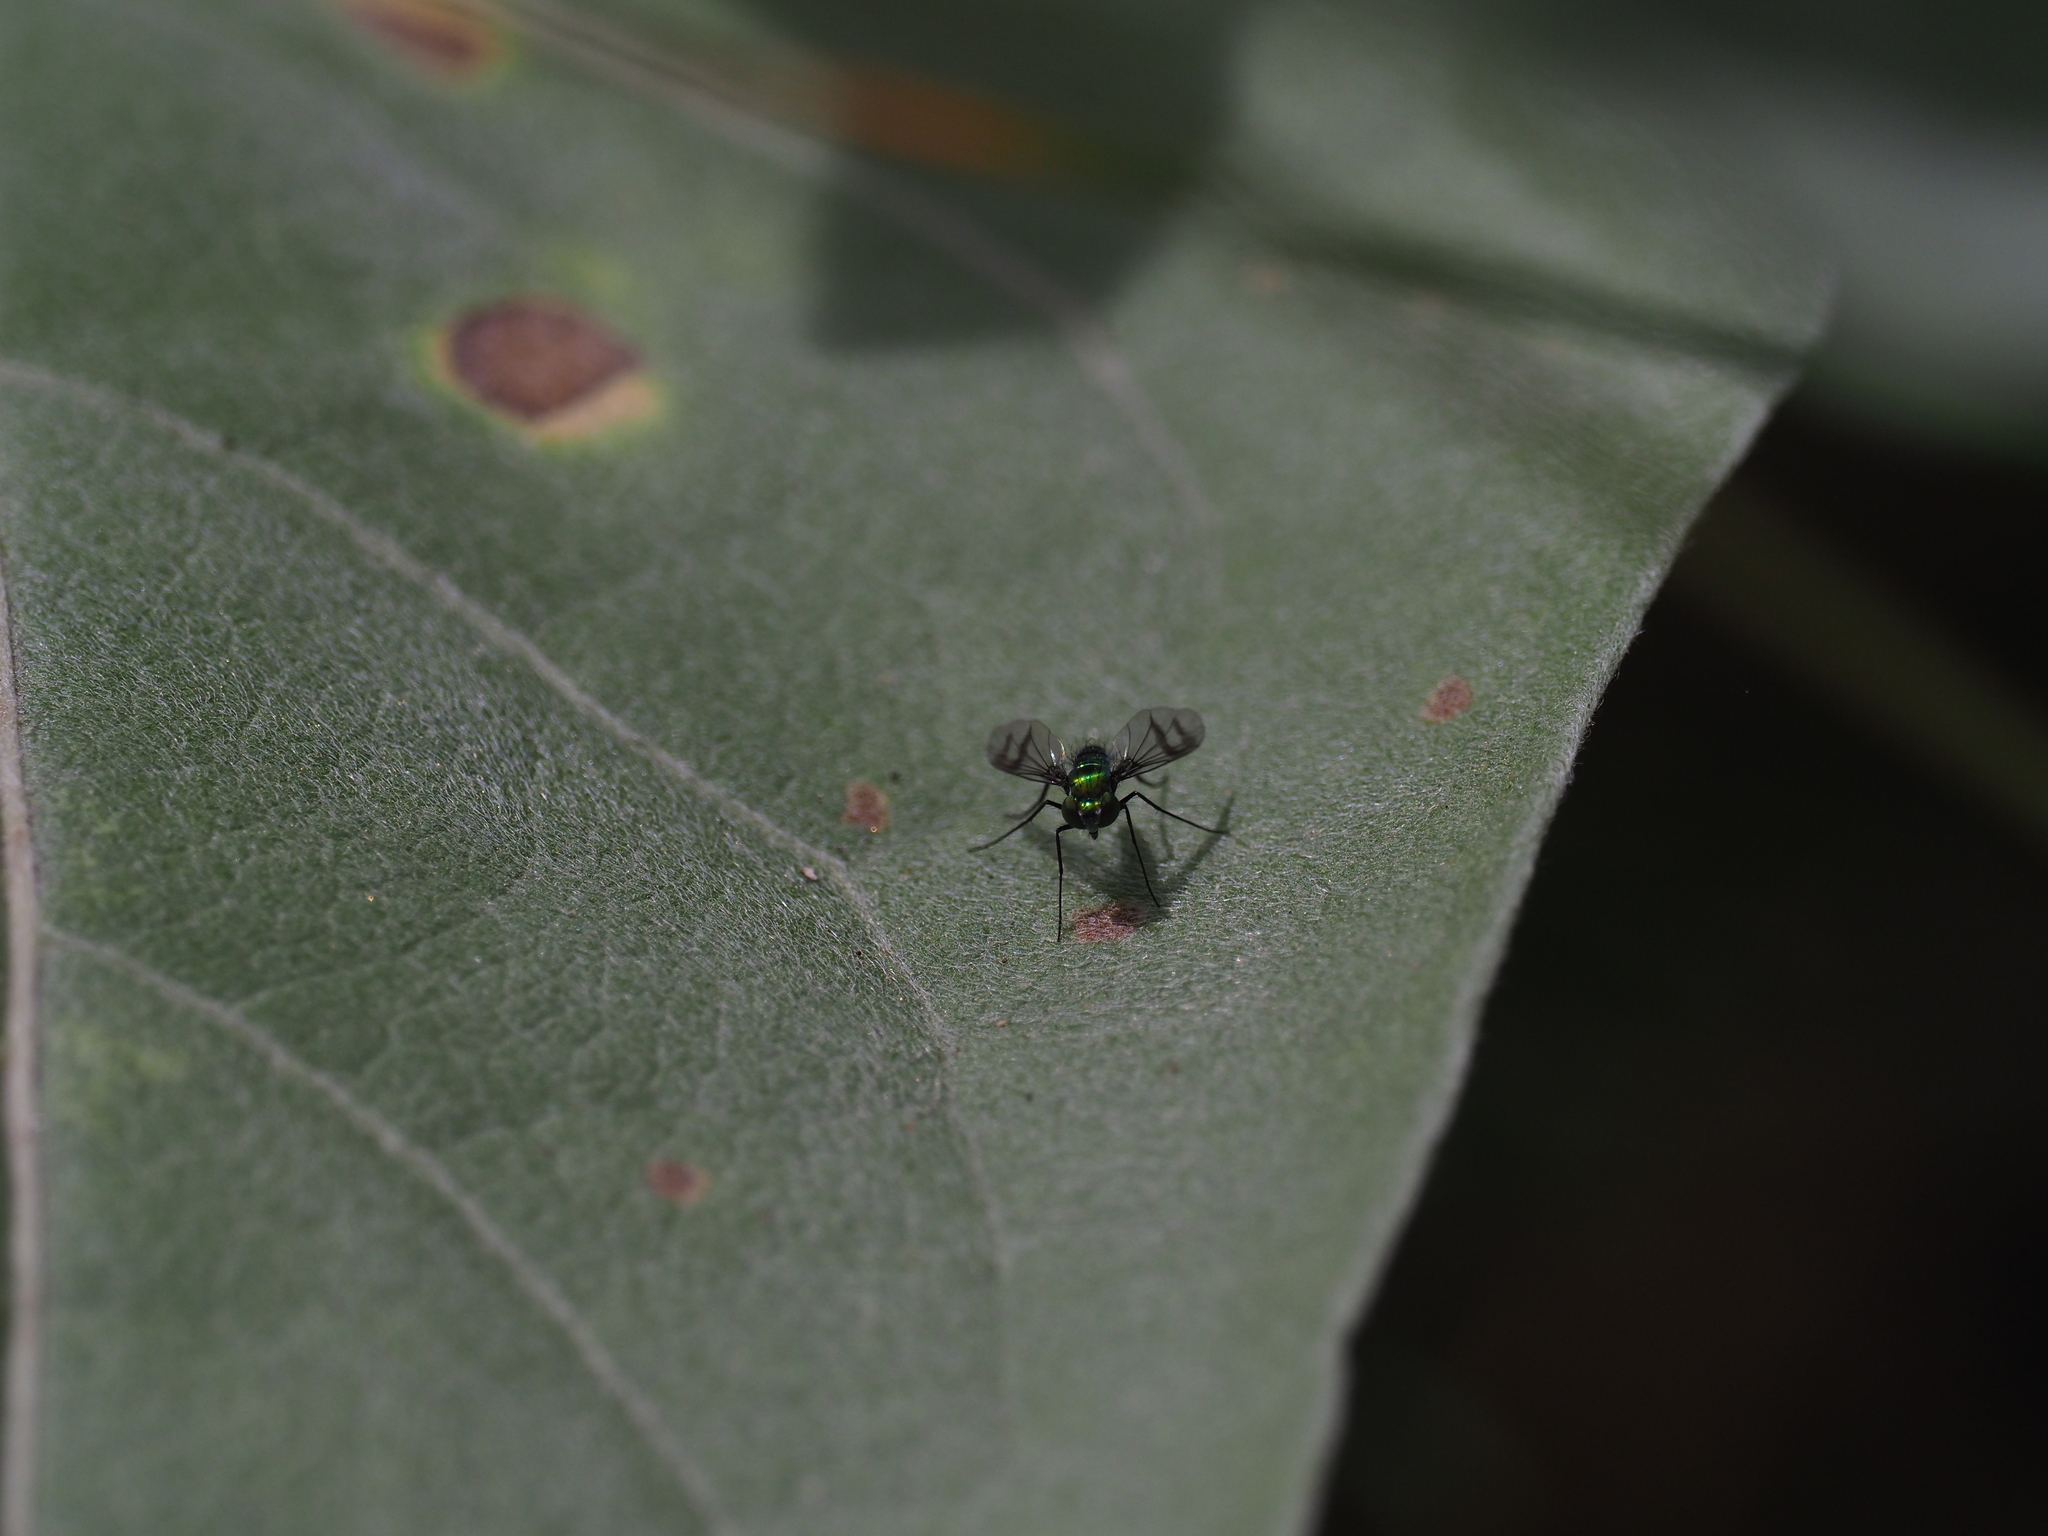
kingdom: Animalia
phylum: Arthropoda
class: Insecta
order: Diptera
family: Dolichopodidae
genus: Condylostylus
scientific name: Condylostylus occidentalis
